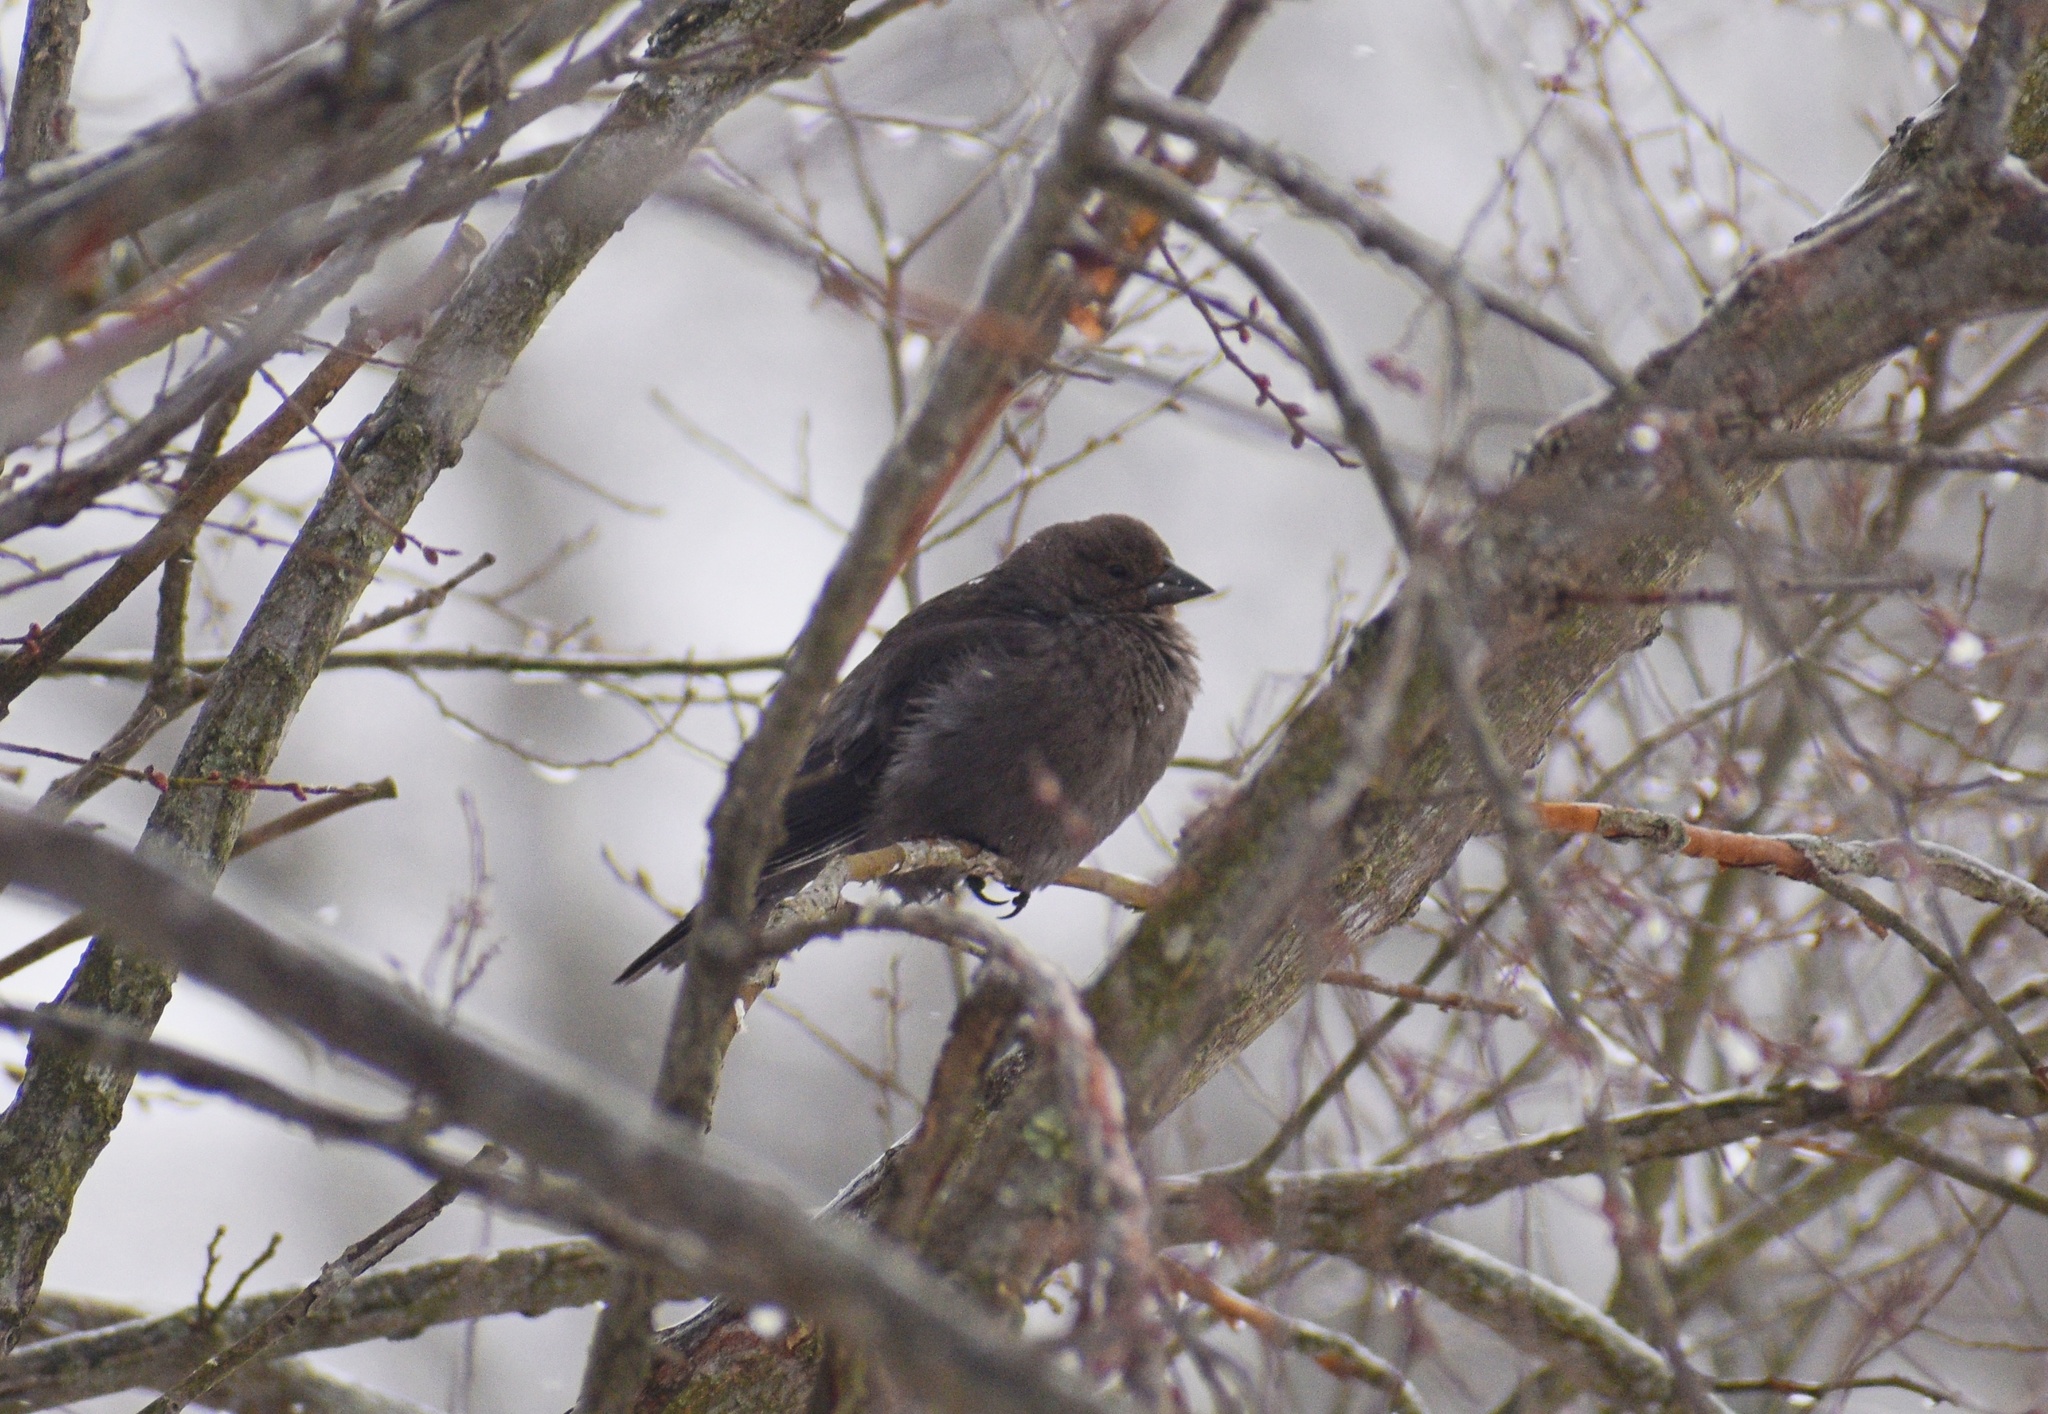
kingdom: Animalia
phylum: Chordata
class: Aves
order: Passeriformes
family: Icteridae
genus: Molothrus
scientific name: Molothrus ater
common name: Brown-headed cowbird
